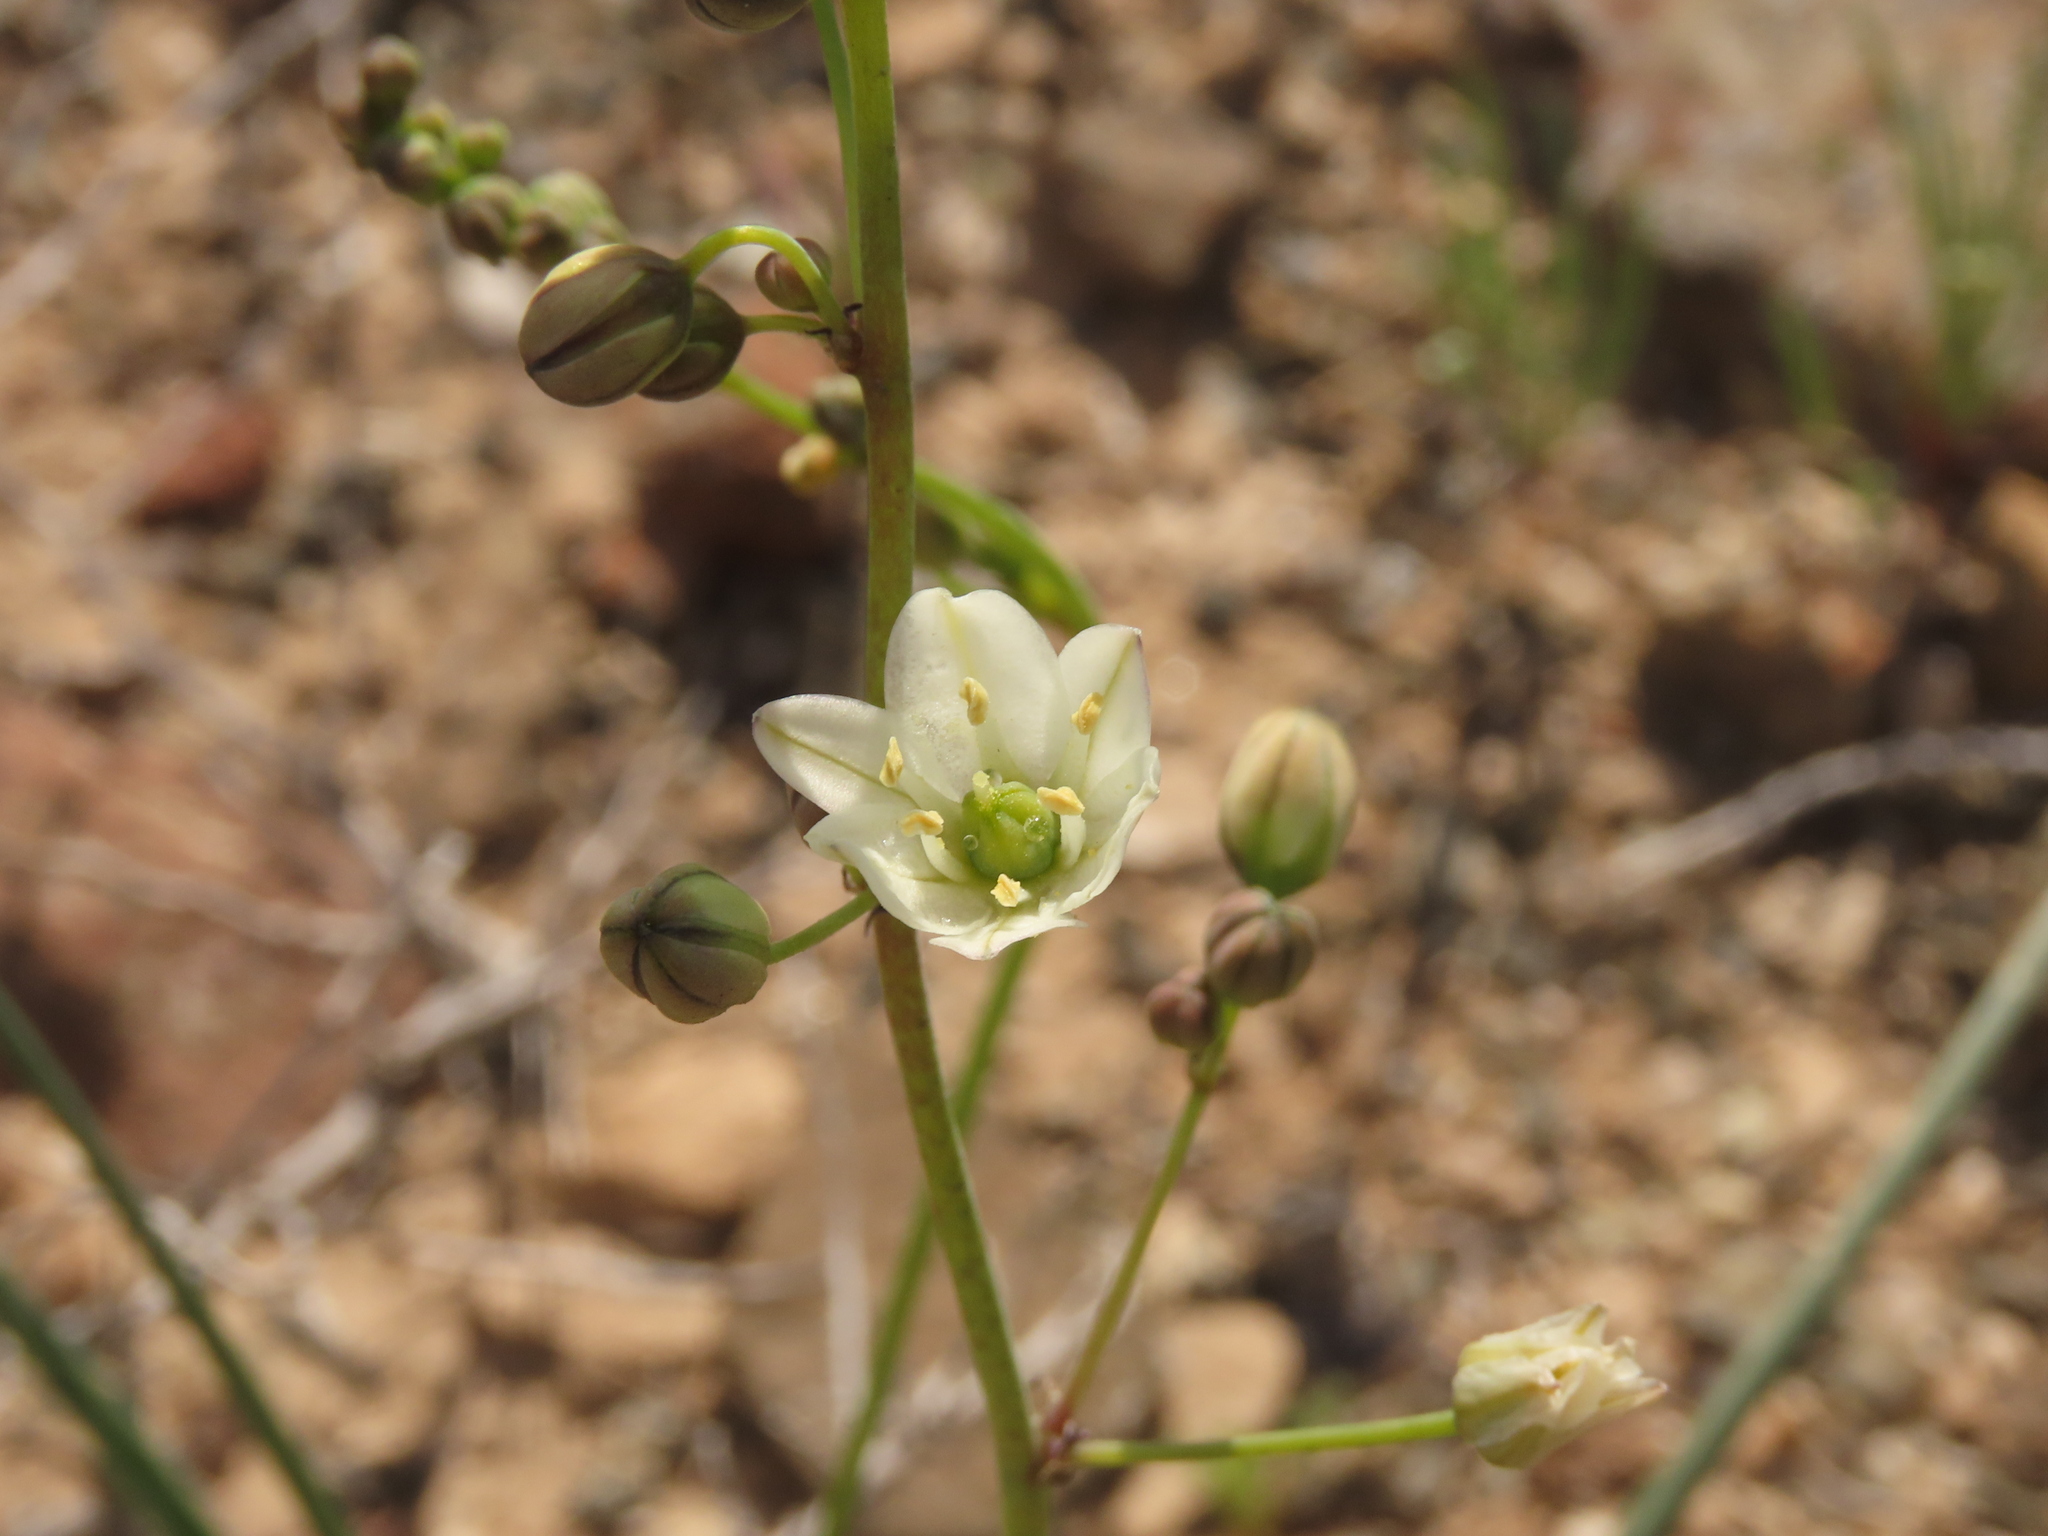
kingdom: Plantae
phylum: Tracheophyta
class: Liliopsida
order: Asparagales
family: Asparagaceae
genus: Oziroe
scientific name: Oziroe biflora
